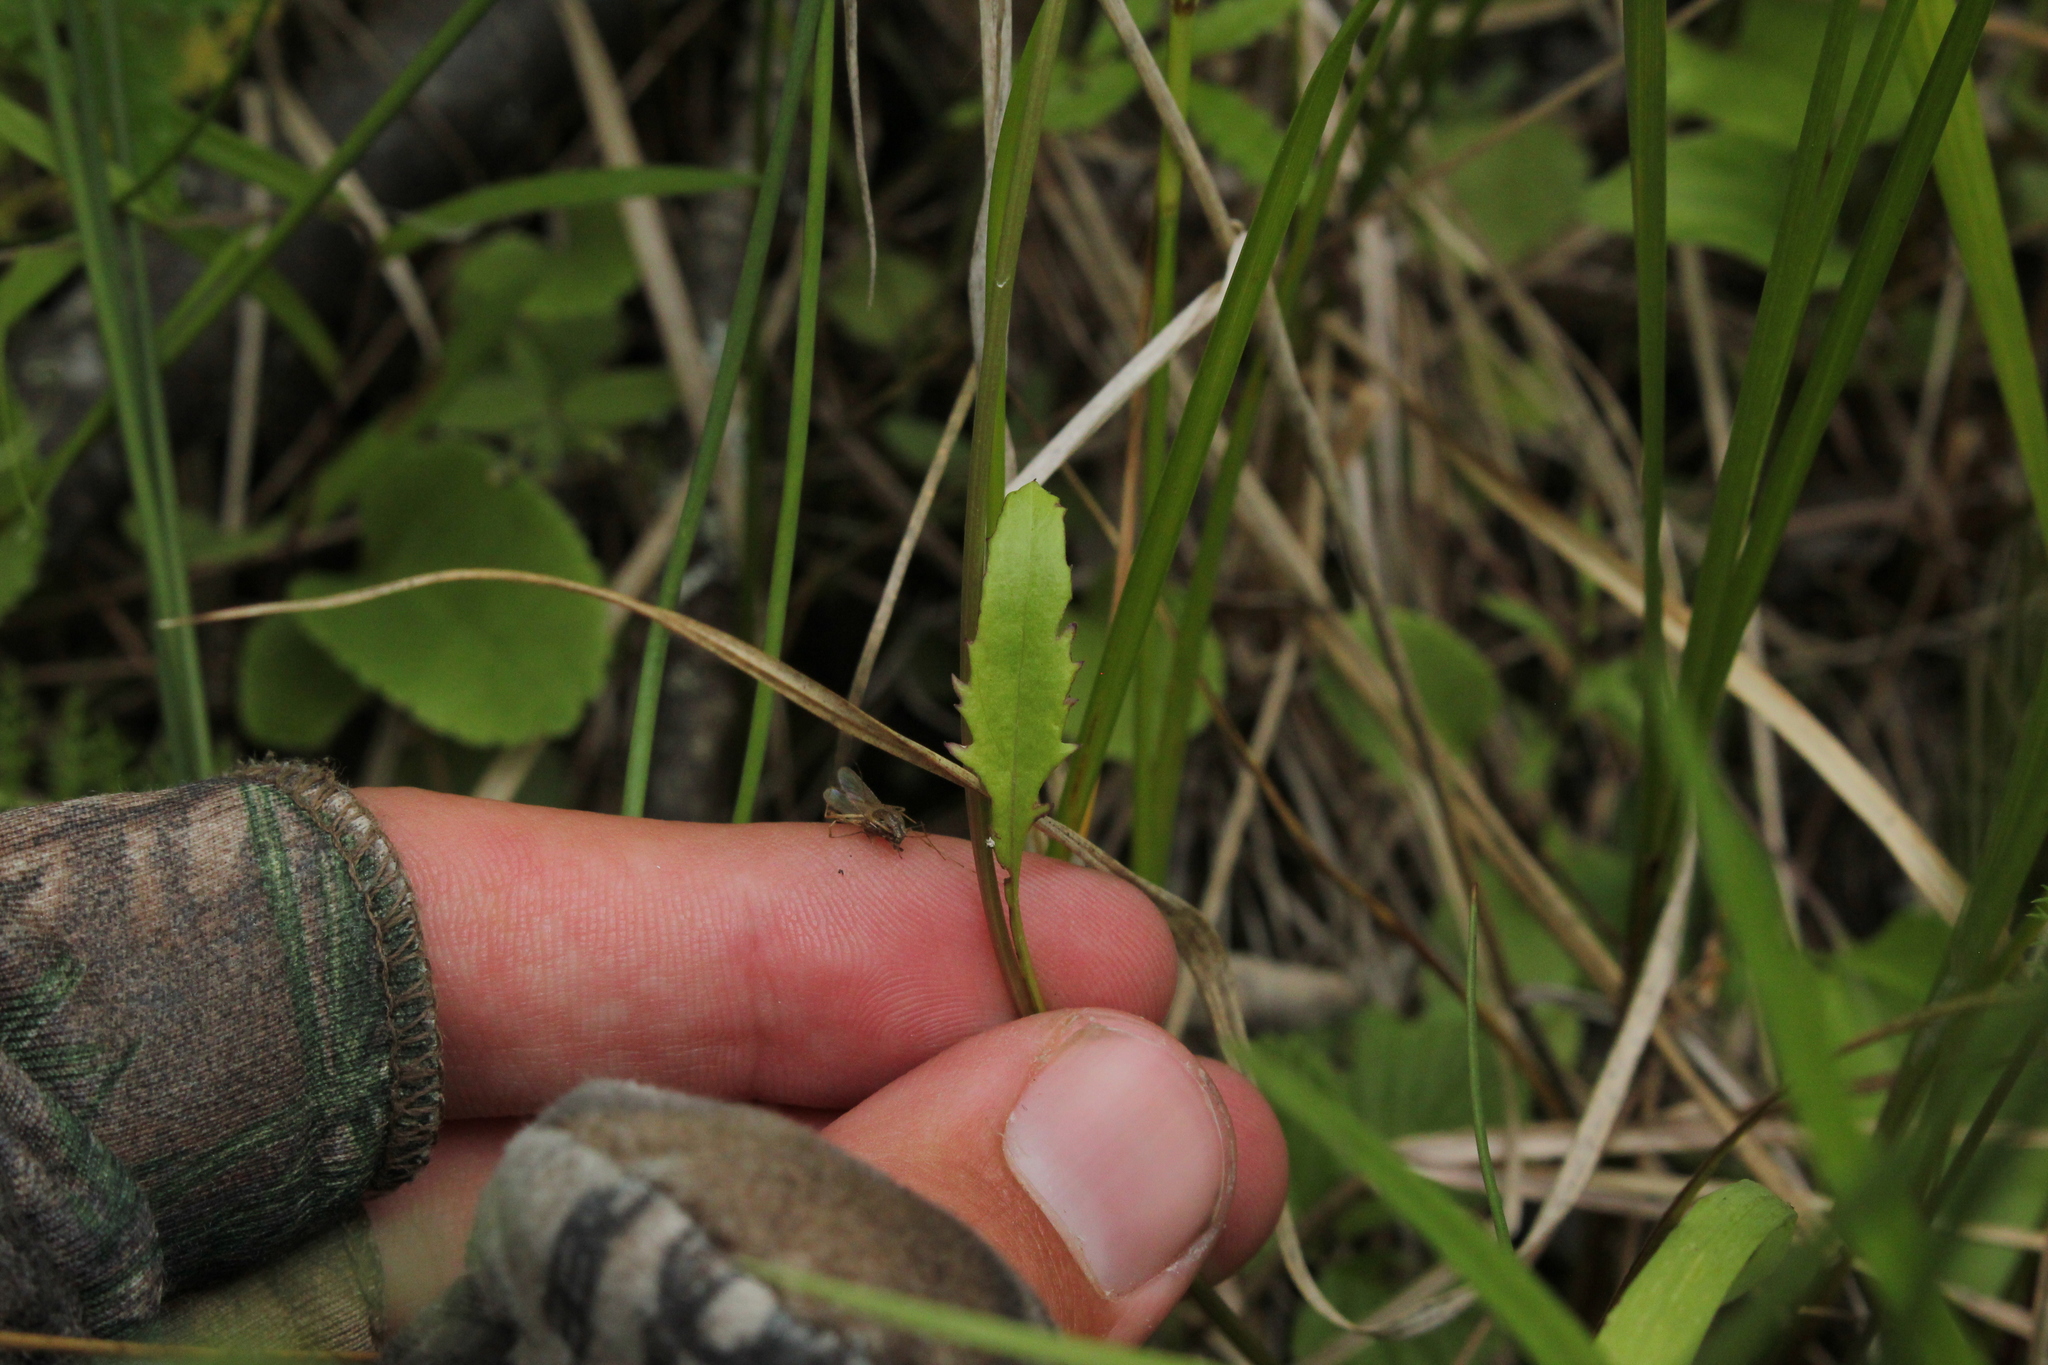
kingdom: Plantae
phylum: Tracheophyta
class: Magnoliopsida
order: Asterales
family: Asteraceae
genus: Packera
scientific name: Packera aurea
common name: Golden groundsel
